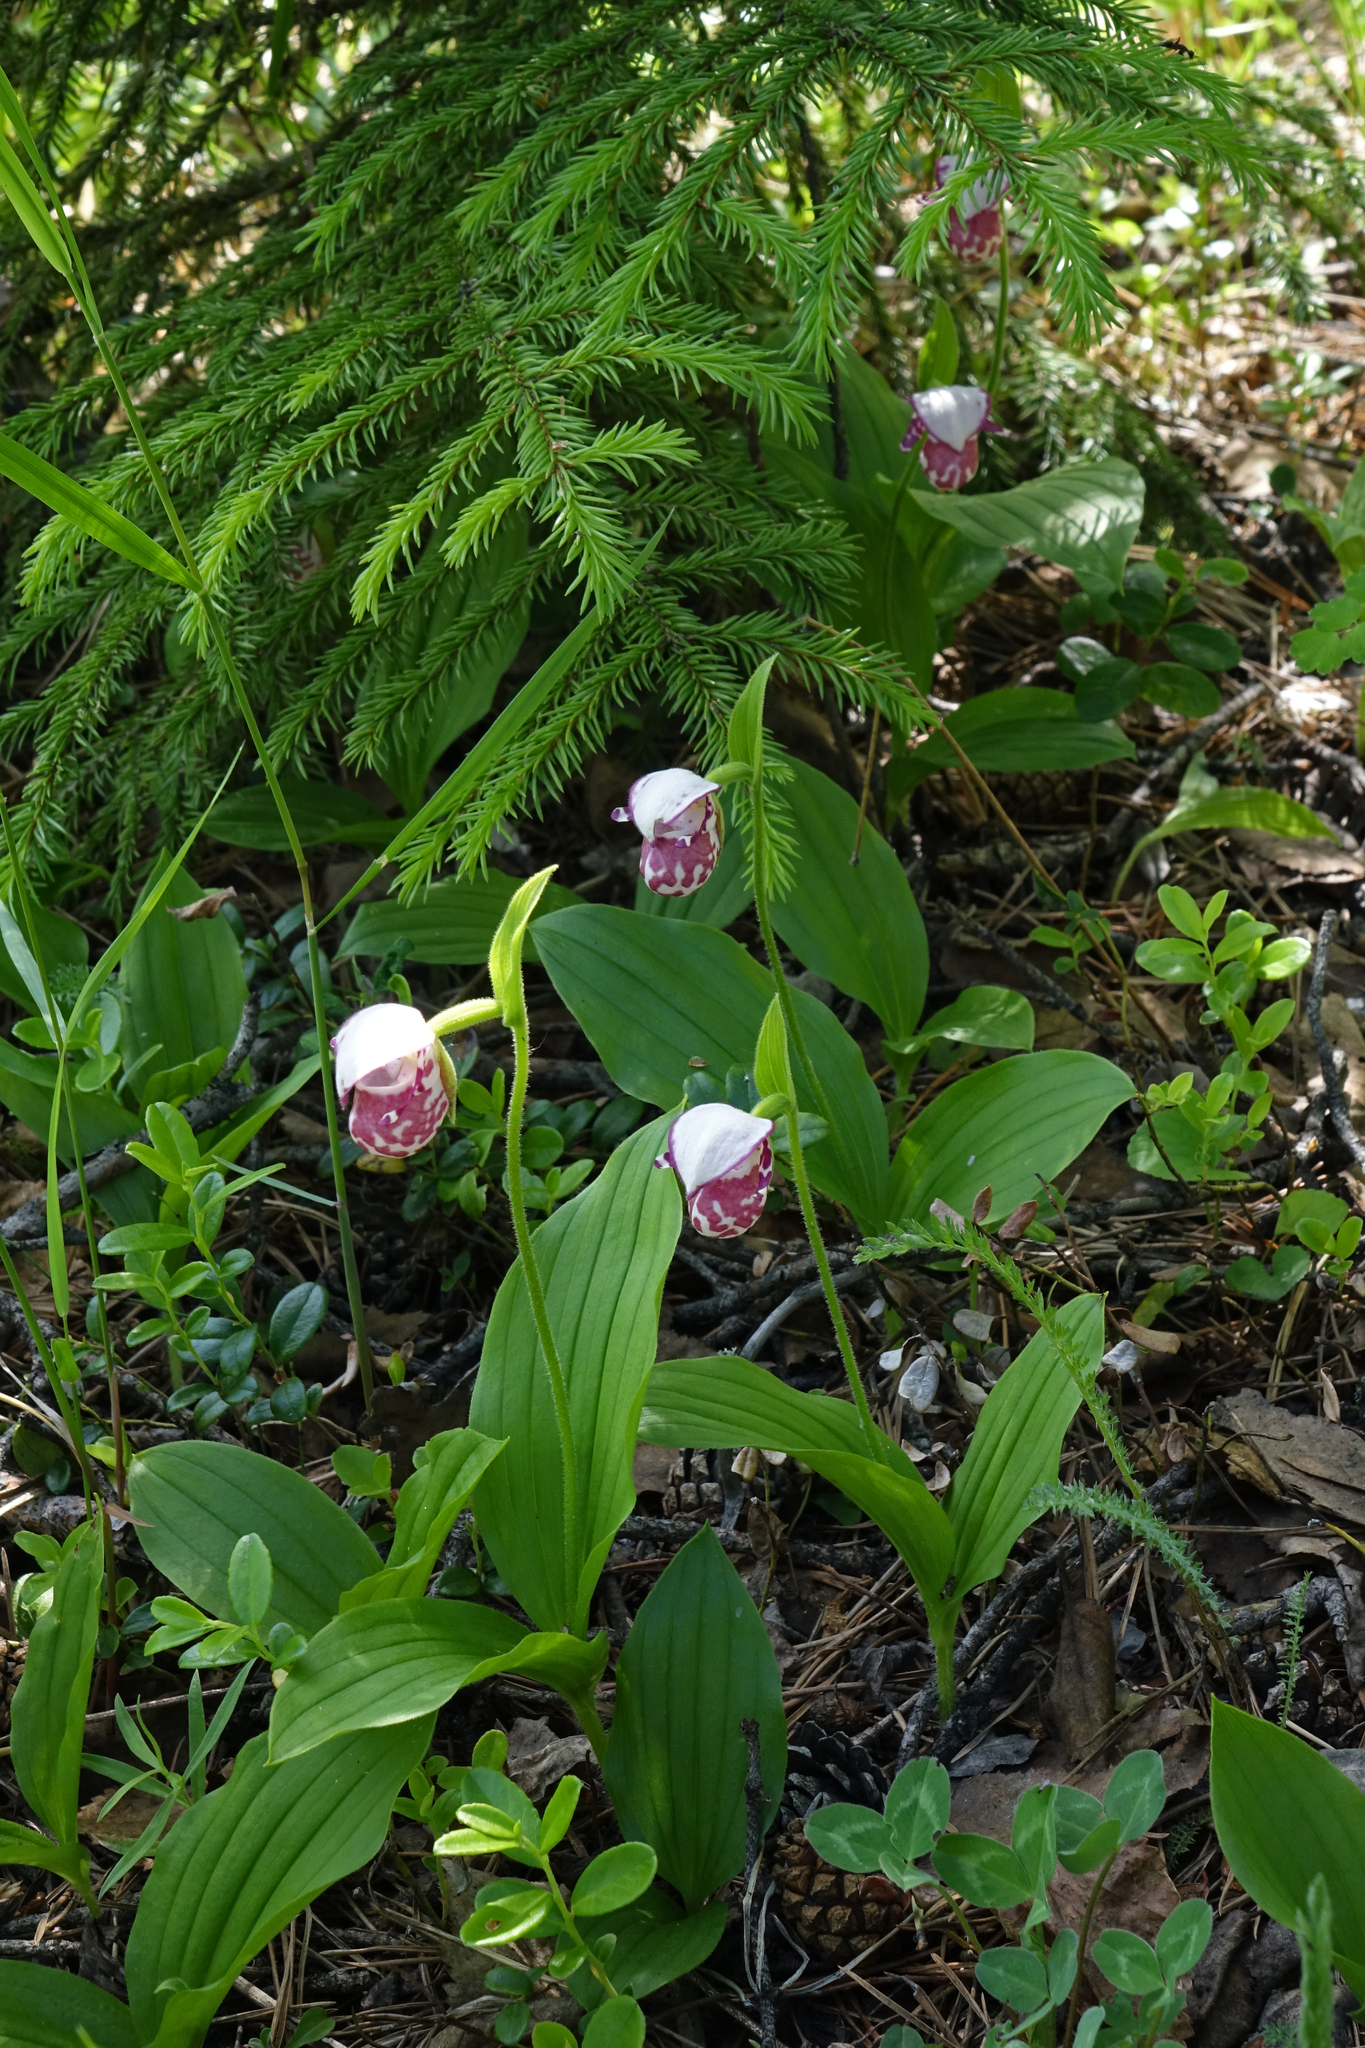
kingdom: Plantae
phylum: Tracheophyta
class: Liliopsida
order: Asparagales
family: Orchidaceae
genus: Cypripedium
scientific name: Cypripedium guttatum
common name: Pink lady slipper
